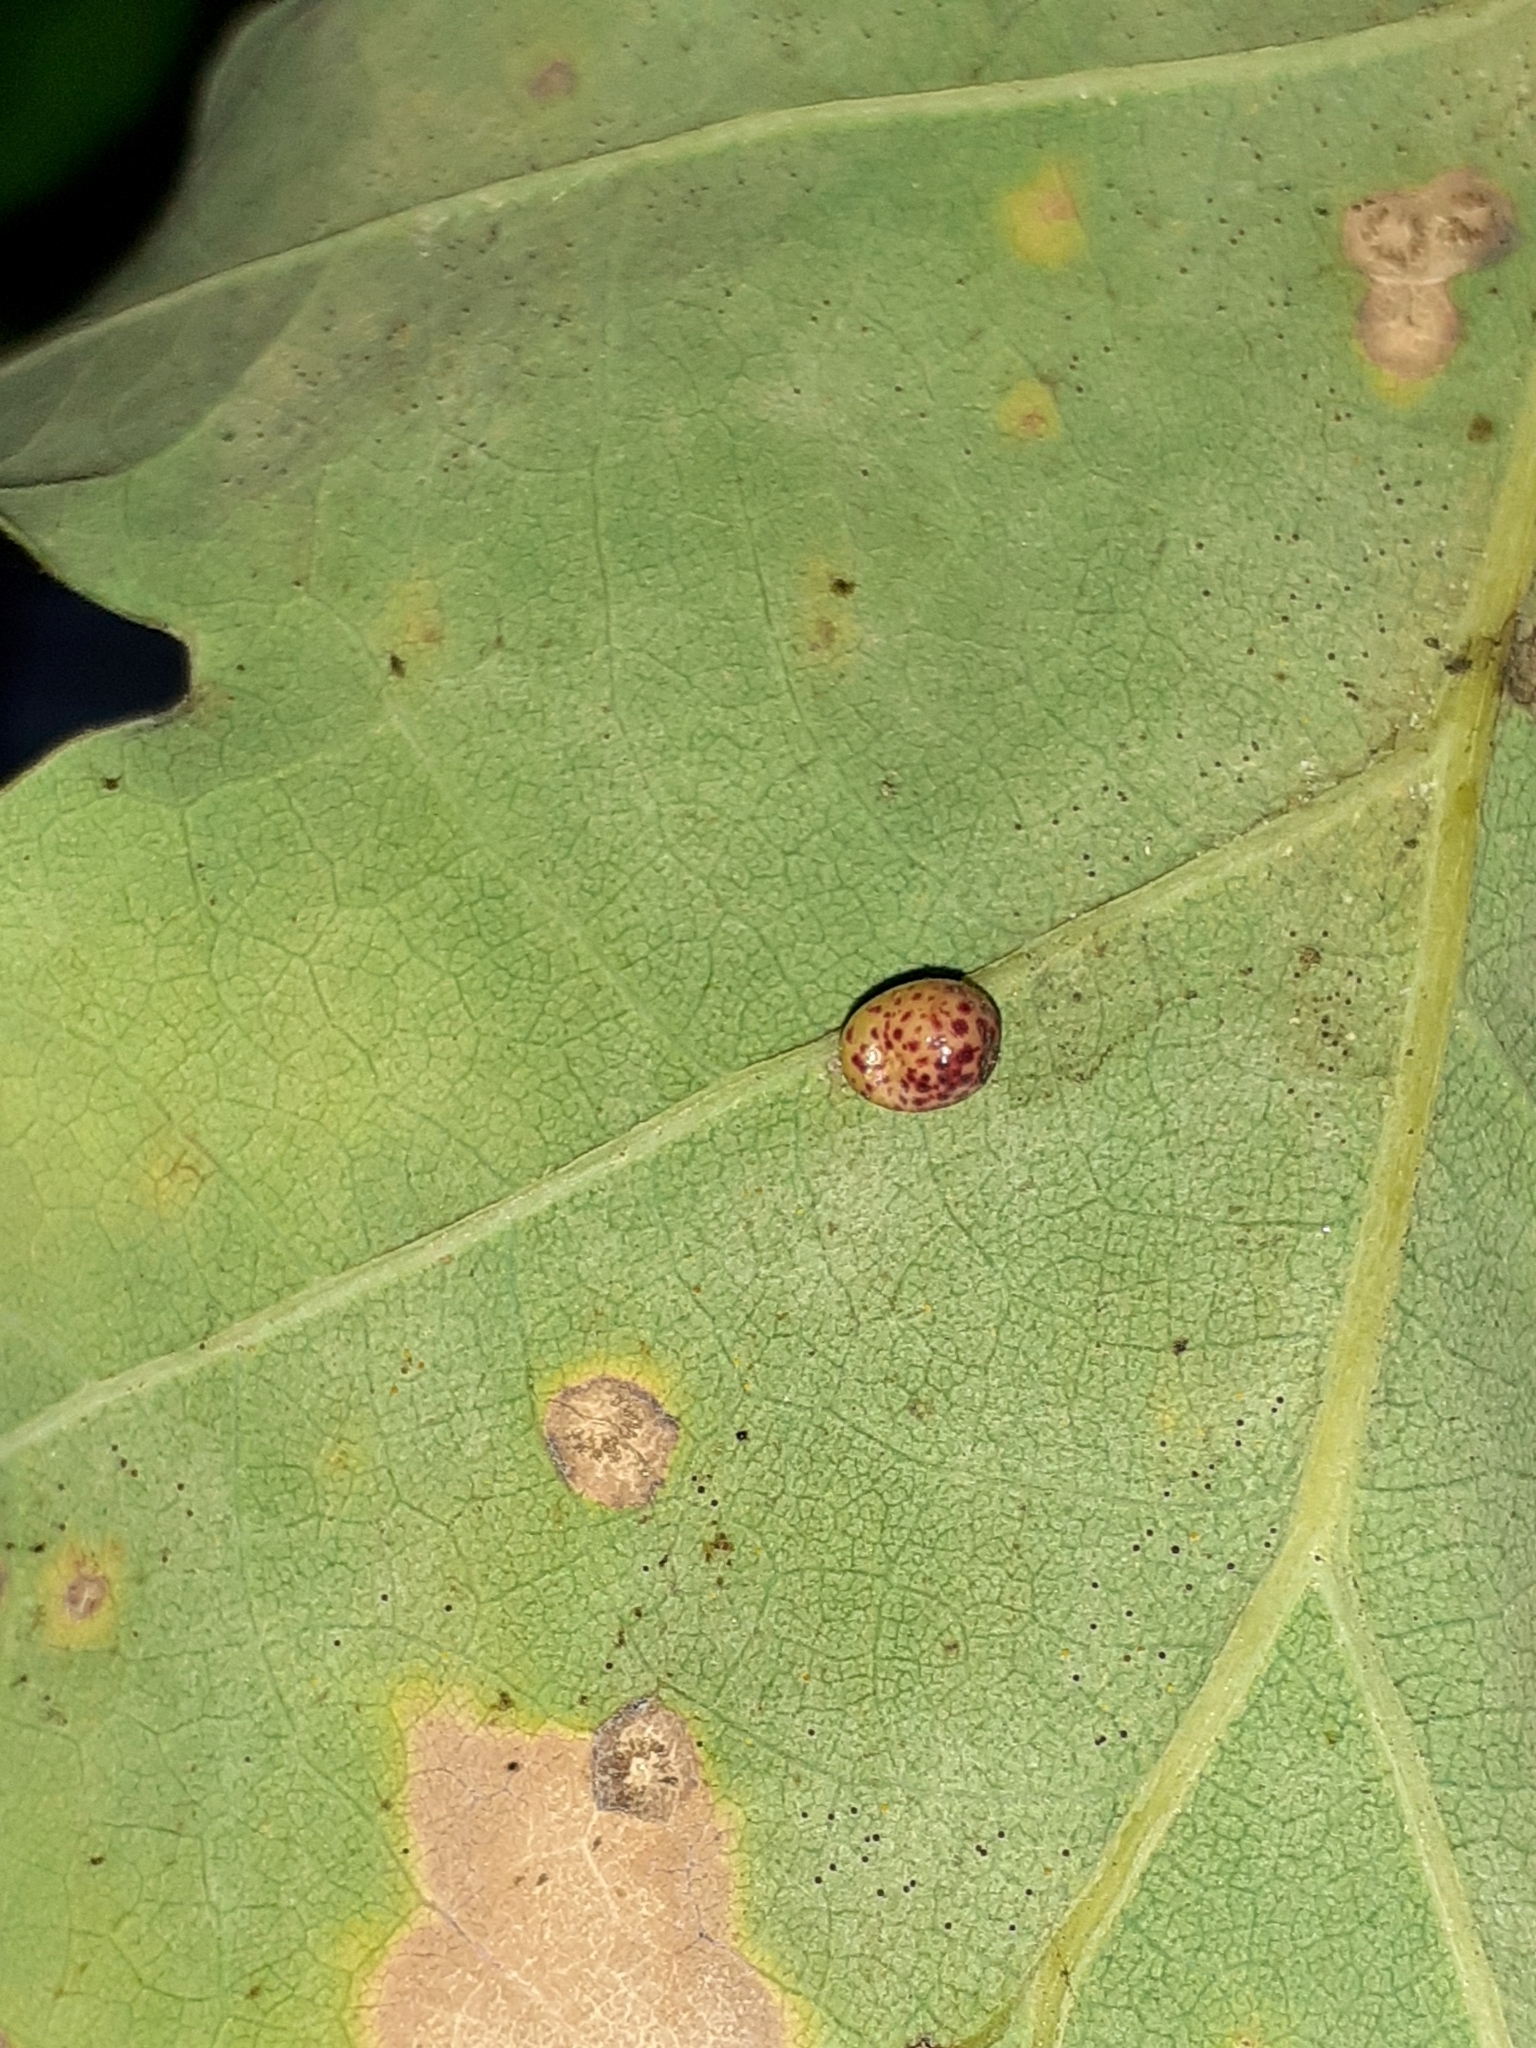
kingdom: Animalia
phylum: Arthropoda
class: Insecta
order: Hymenoptera
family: Cynipidae
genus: Neuroterus
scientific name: Neuroterus anthracinus
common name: Oyster gall
